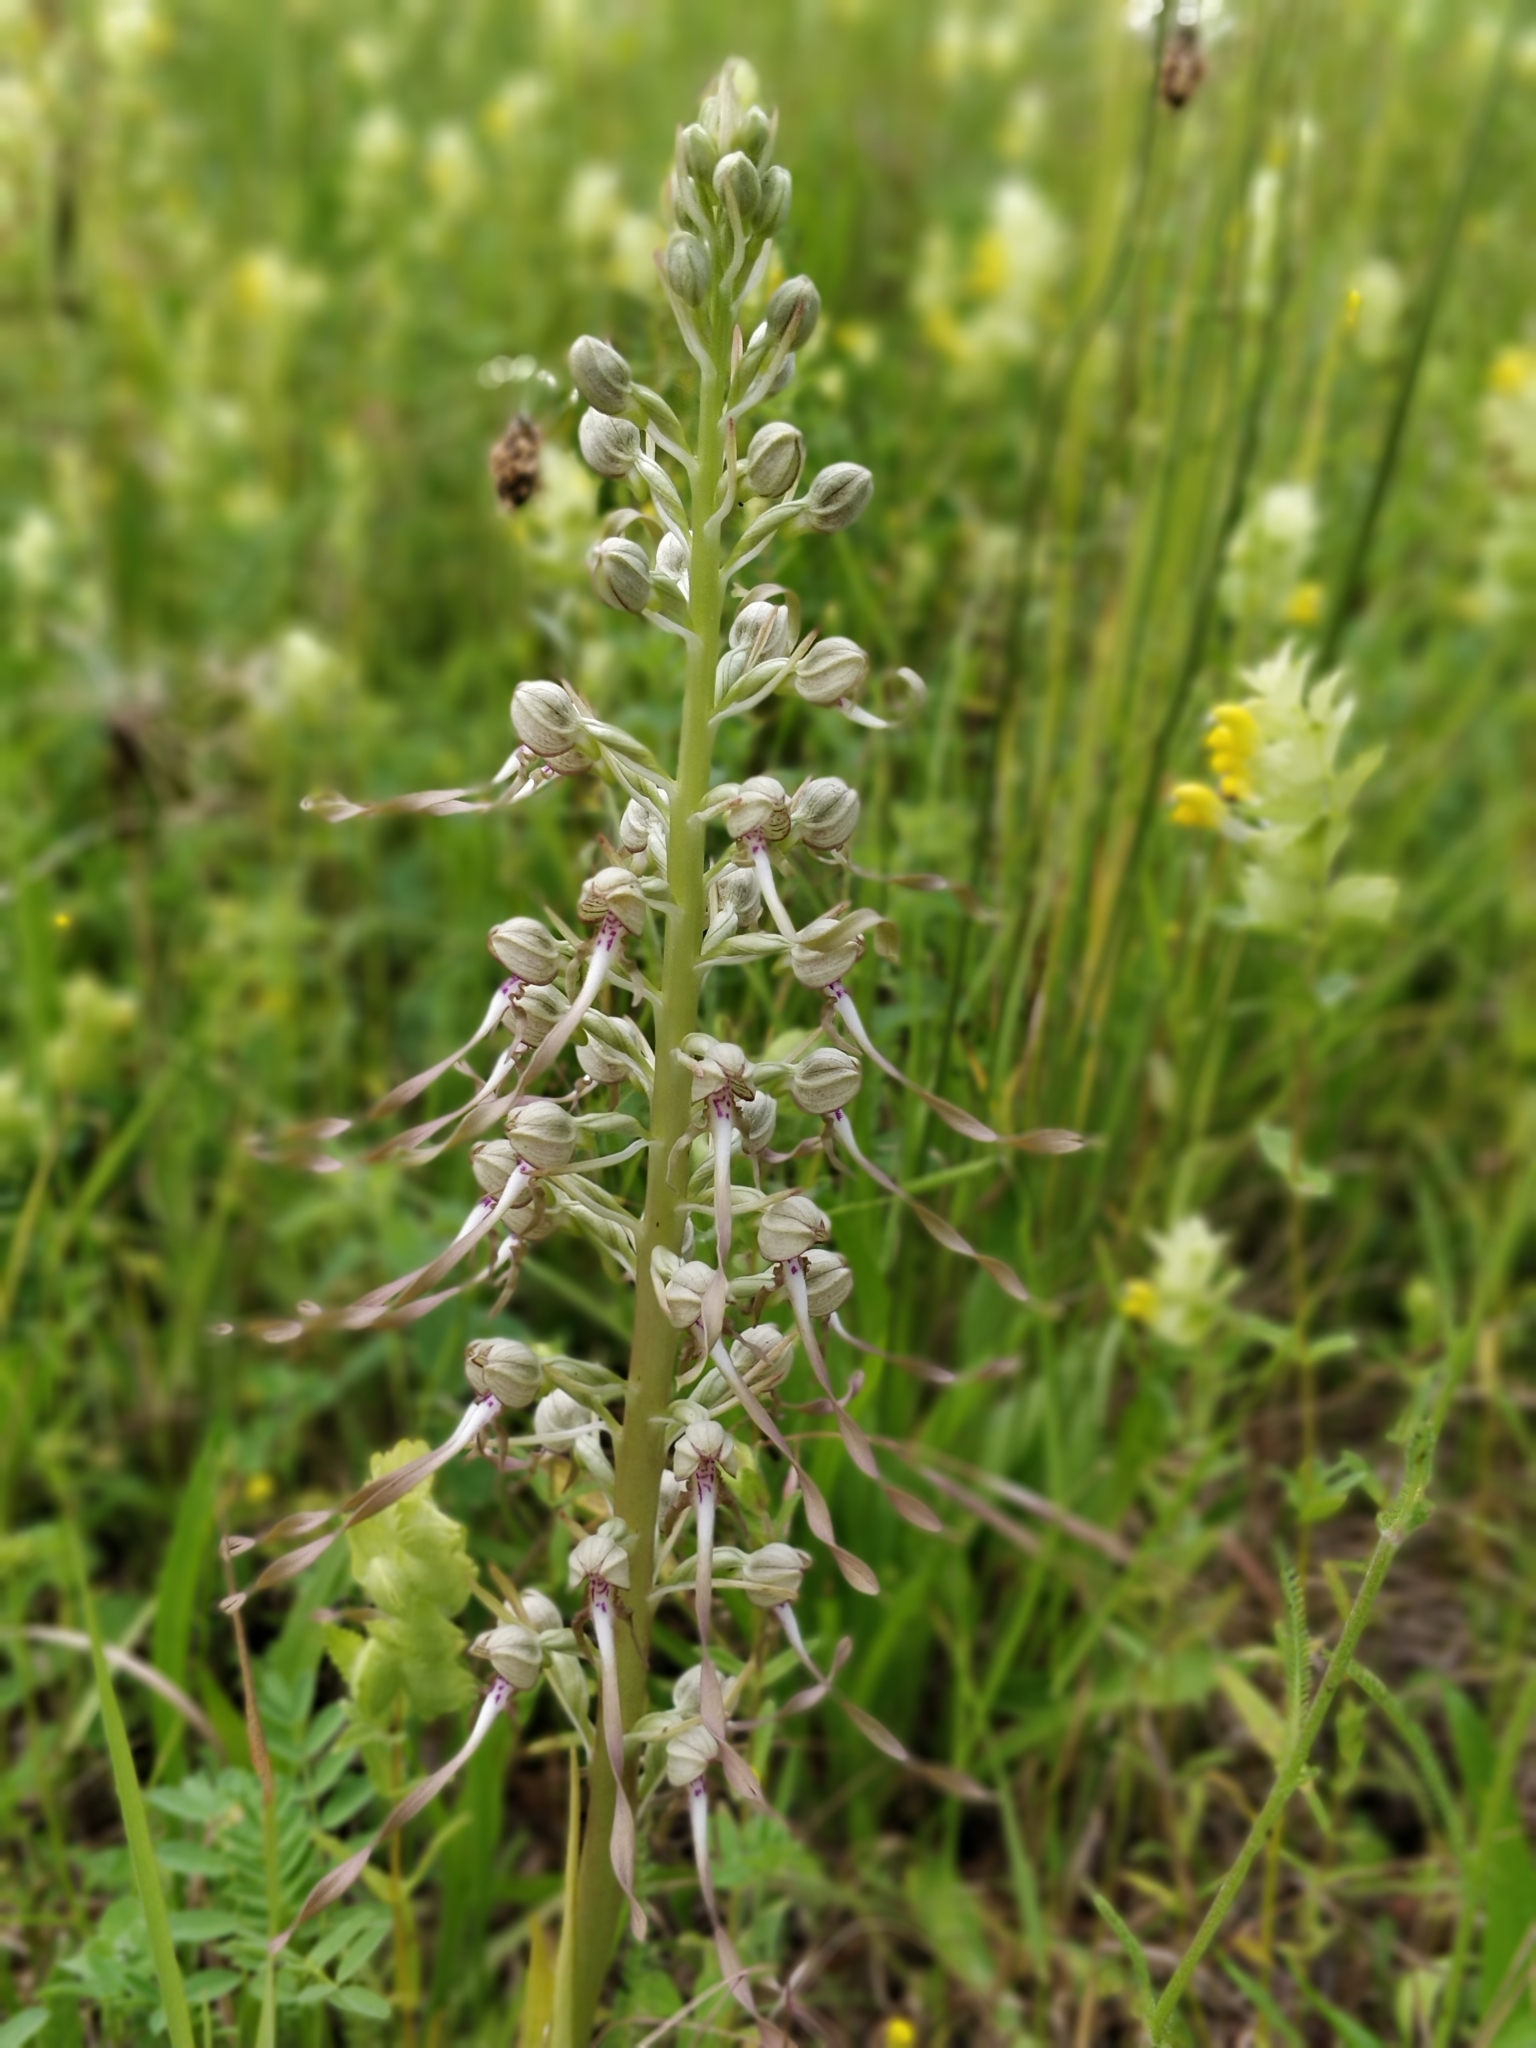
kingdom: Plantae
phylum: Tracheophyta
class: Liliopsida
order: Asparagales
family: Orchidaceae
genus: Himantoglossum
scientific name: Himantoglossum hircinum
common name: Lizard orchid
